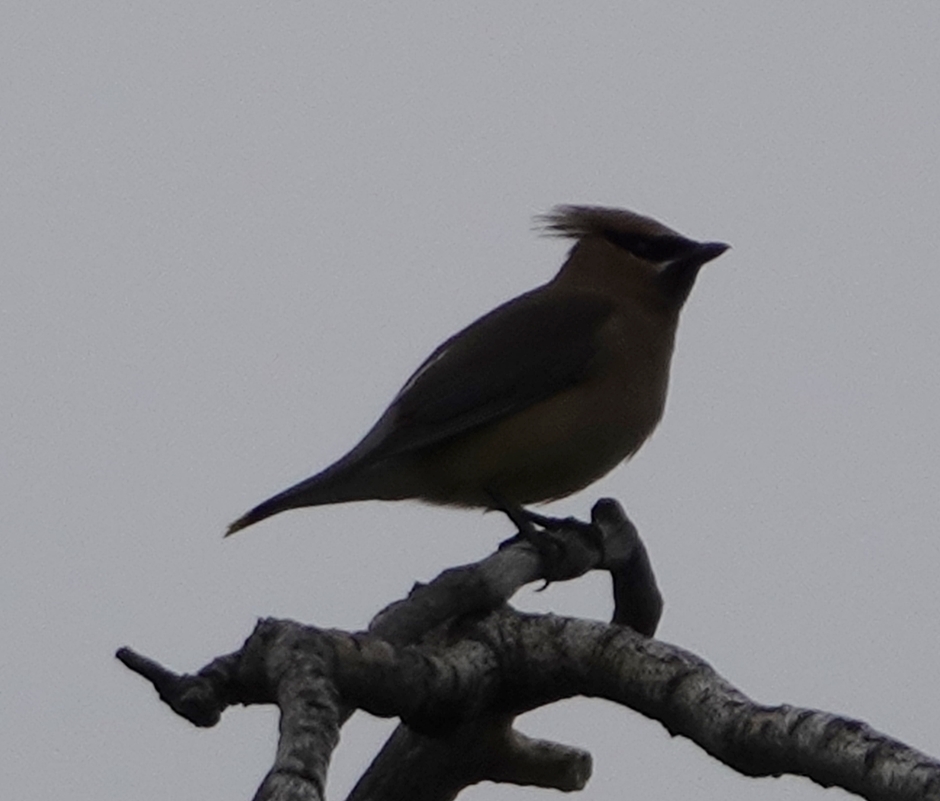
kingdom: Animalia
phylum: Chordata
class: Aves
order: Passeriformes
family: Bombycillidae
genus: Bombycilla
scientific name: Bombycilla cedrorum
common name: Cedar waxwing
